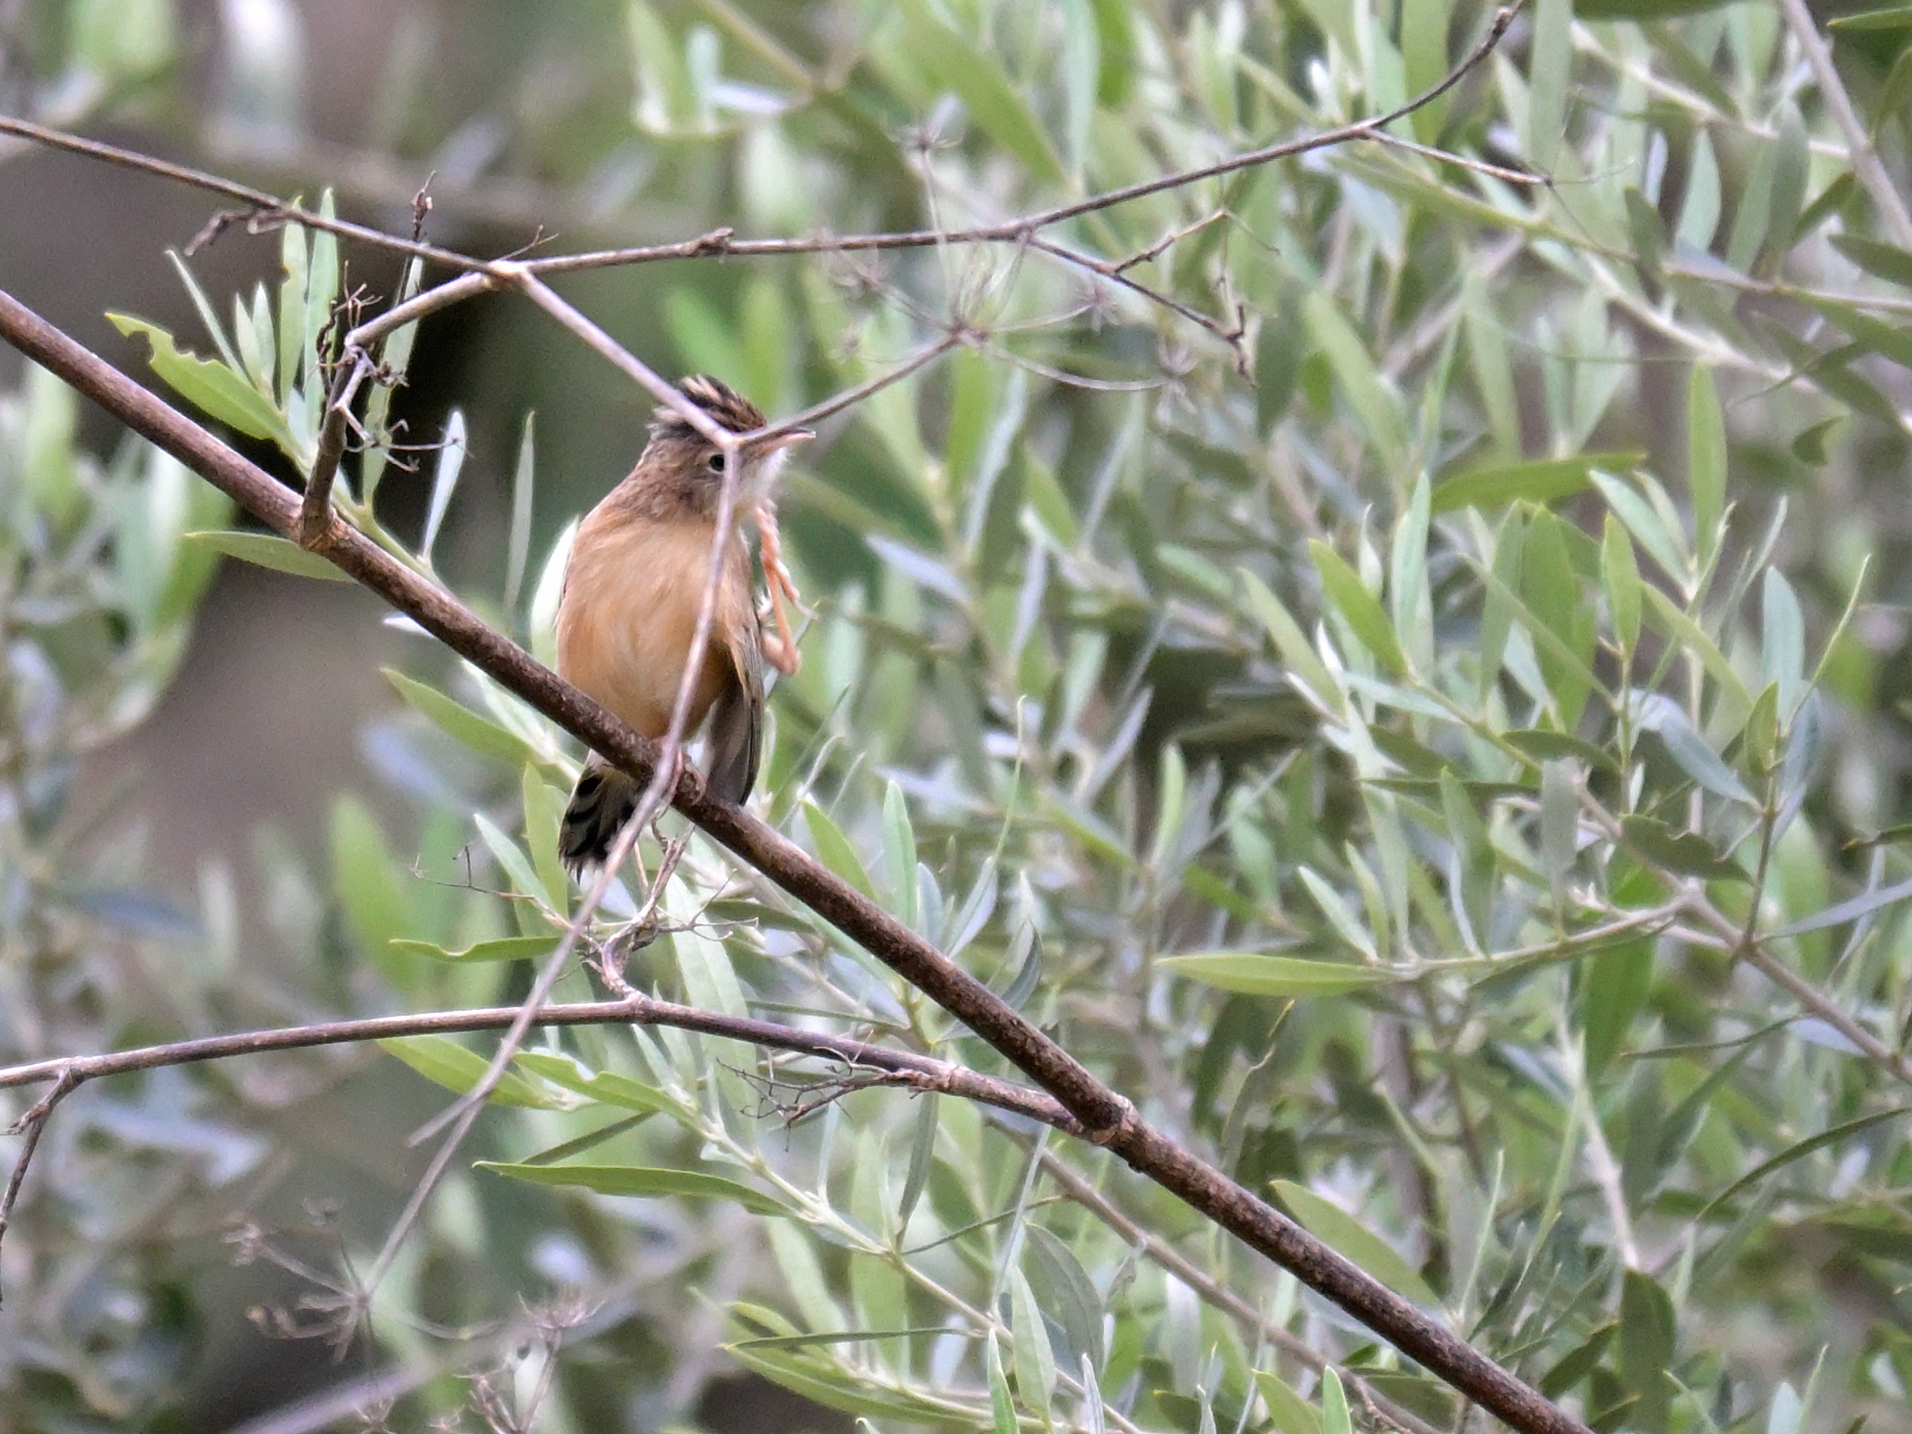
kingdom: Animalia
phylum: Chordata
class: Aves
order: Passeriformes
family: Cisticolidae
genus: Cisticola
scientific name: Cisticola juncidis
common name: Zitting cisticola
